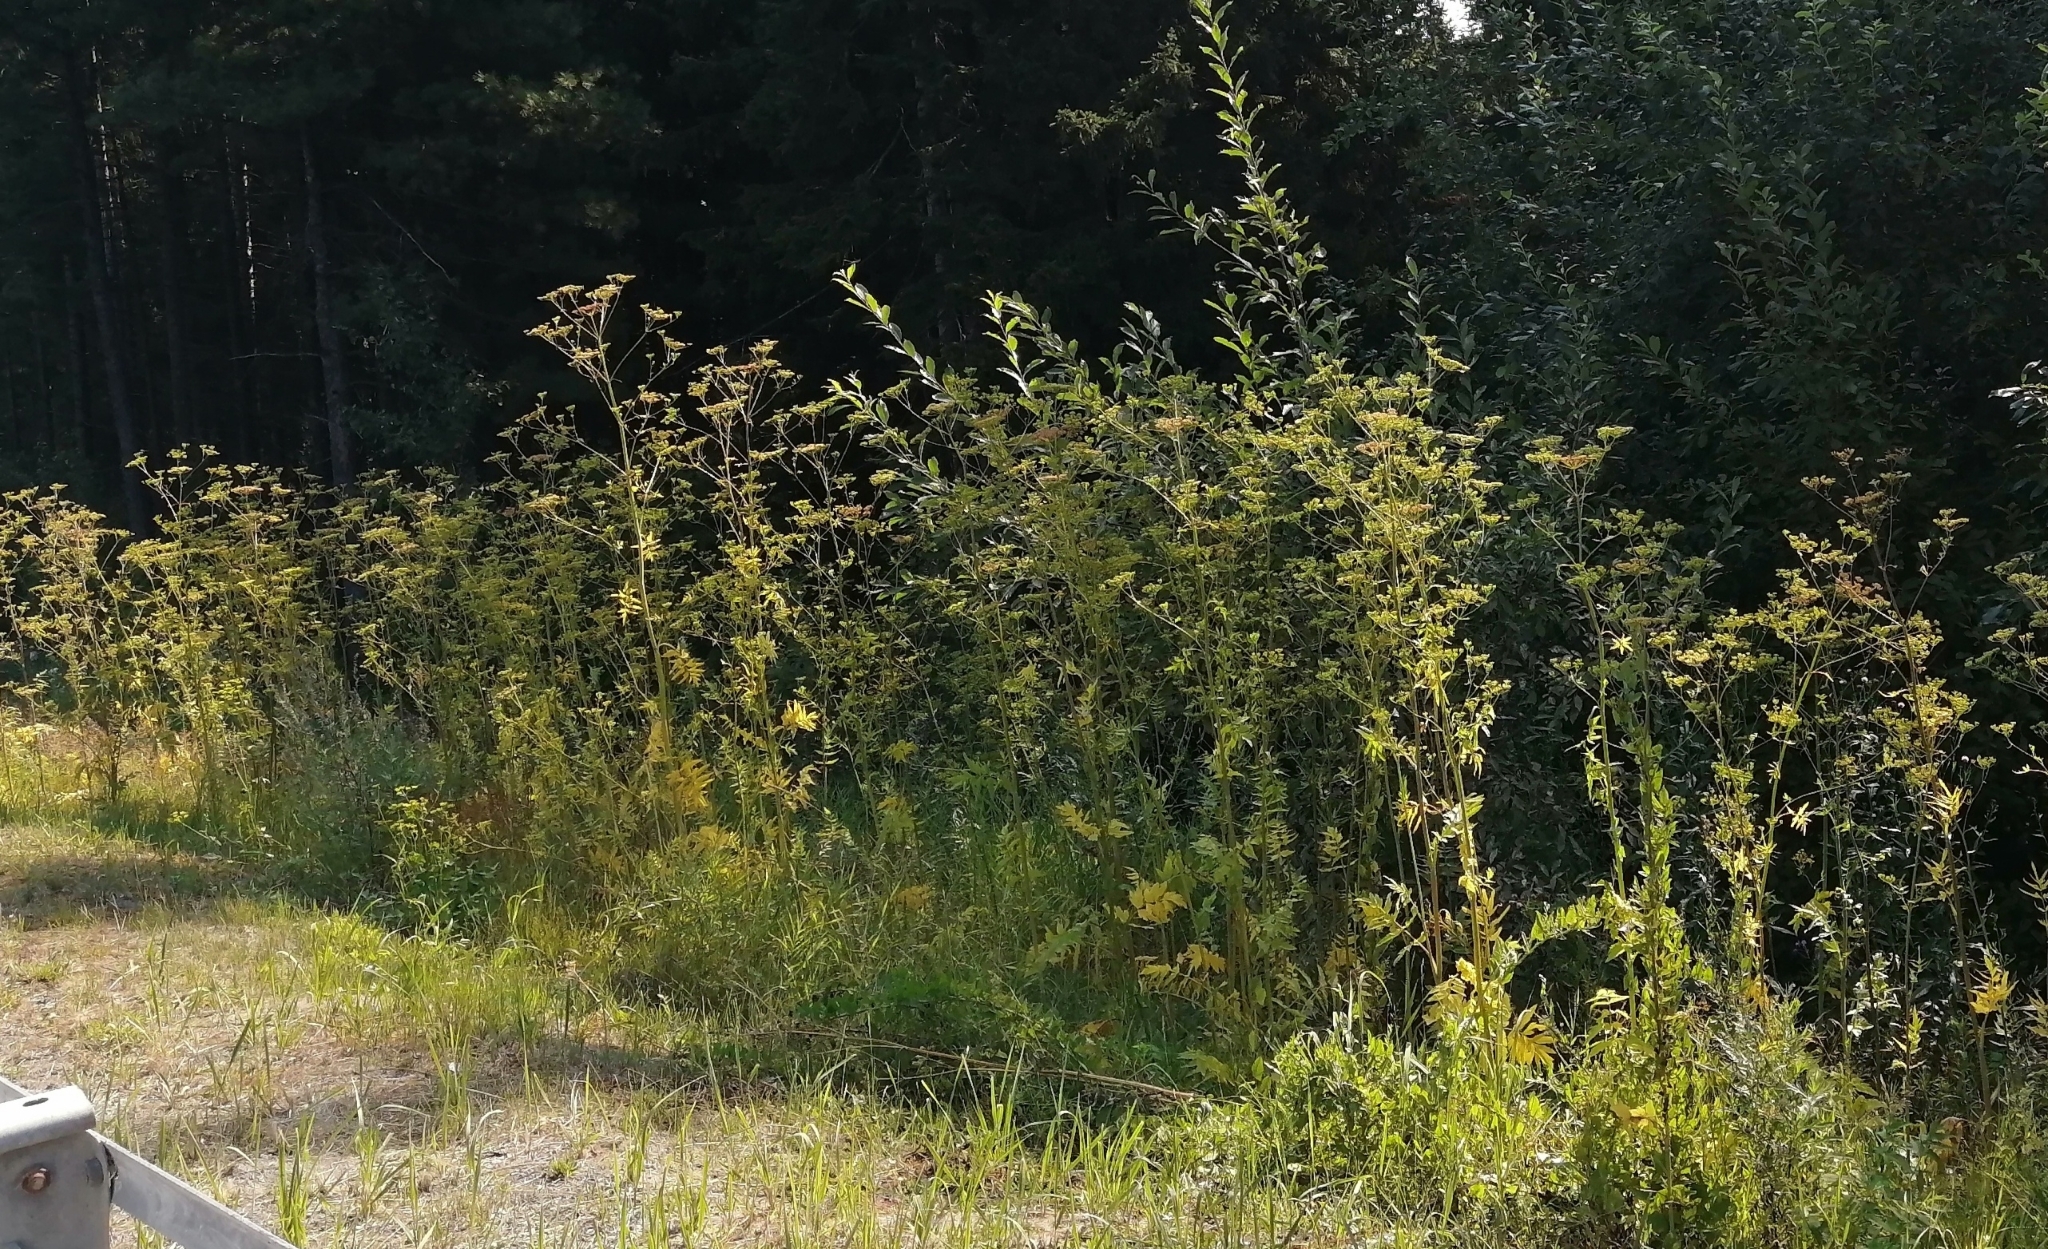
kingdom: Plantae
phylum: Tracheophyta
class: Magnoliopsida
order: Apiales
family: Apiaceae
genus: Pastinaca
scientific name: Pastinaca sativa
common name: Wild parsnip
